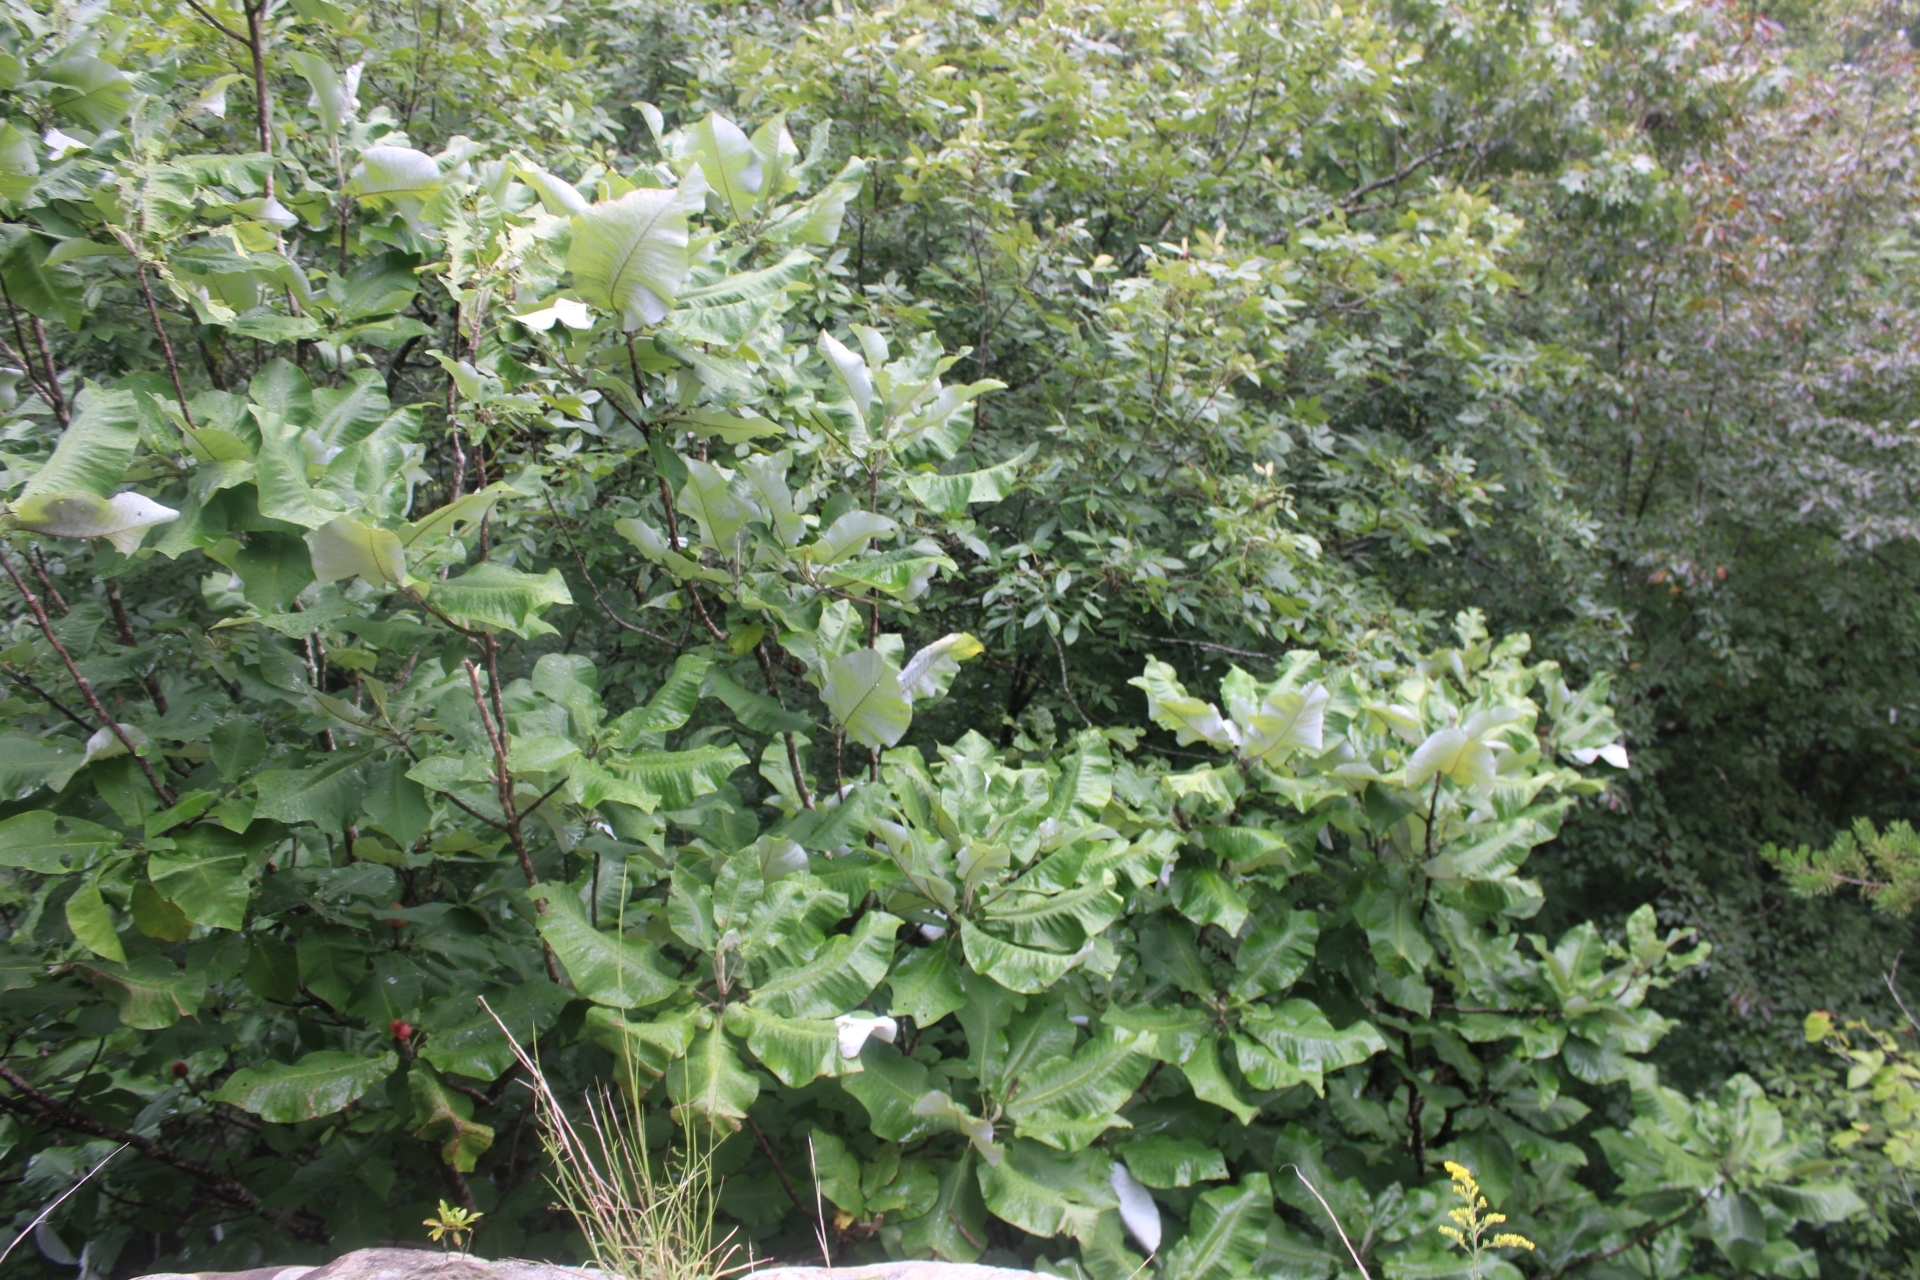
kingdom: Plantae
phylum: Tracheophyta
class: Magnoliopsida
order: Magnoliales
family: Magnoliaceae
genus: Magnolia
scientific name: Magnolia macrophylla
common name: Big-leaf magnolia
